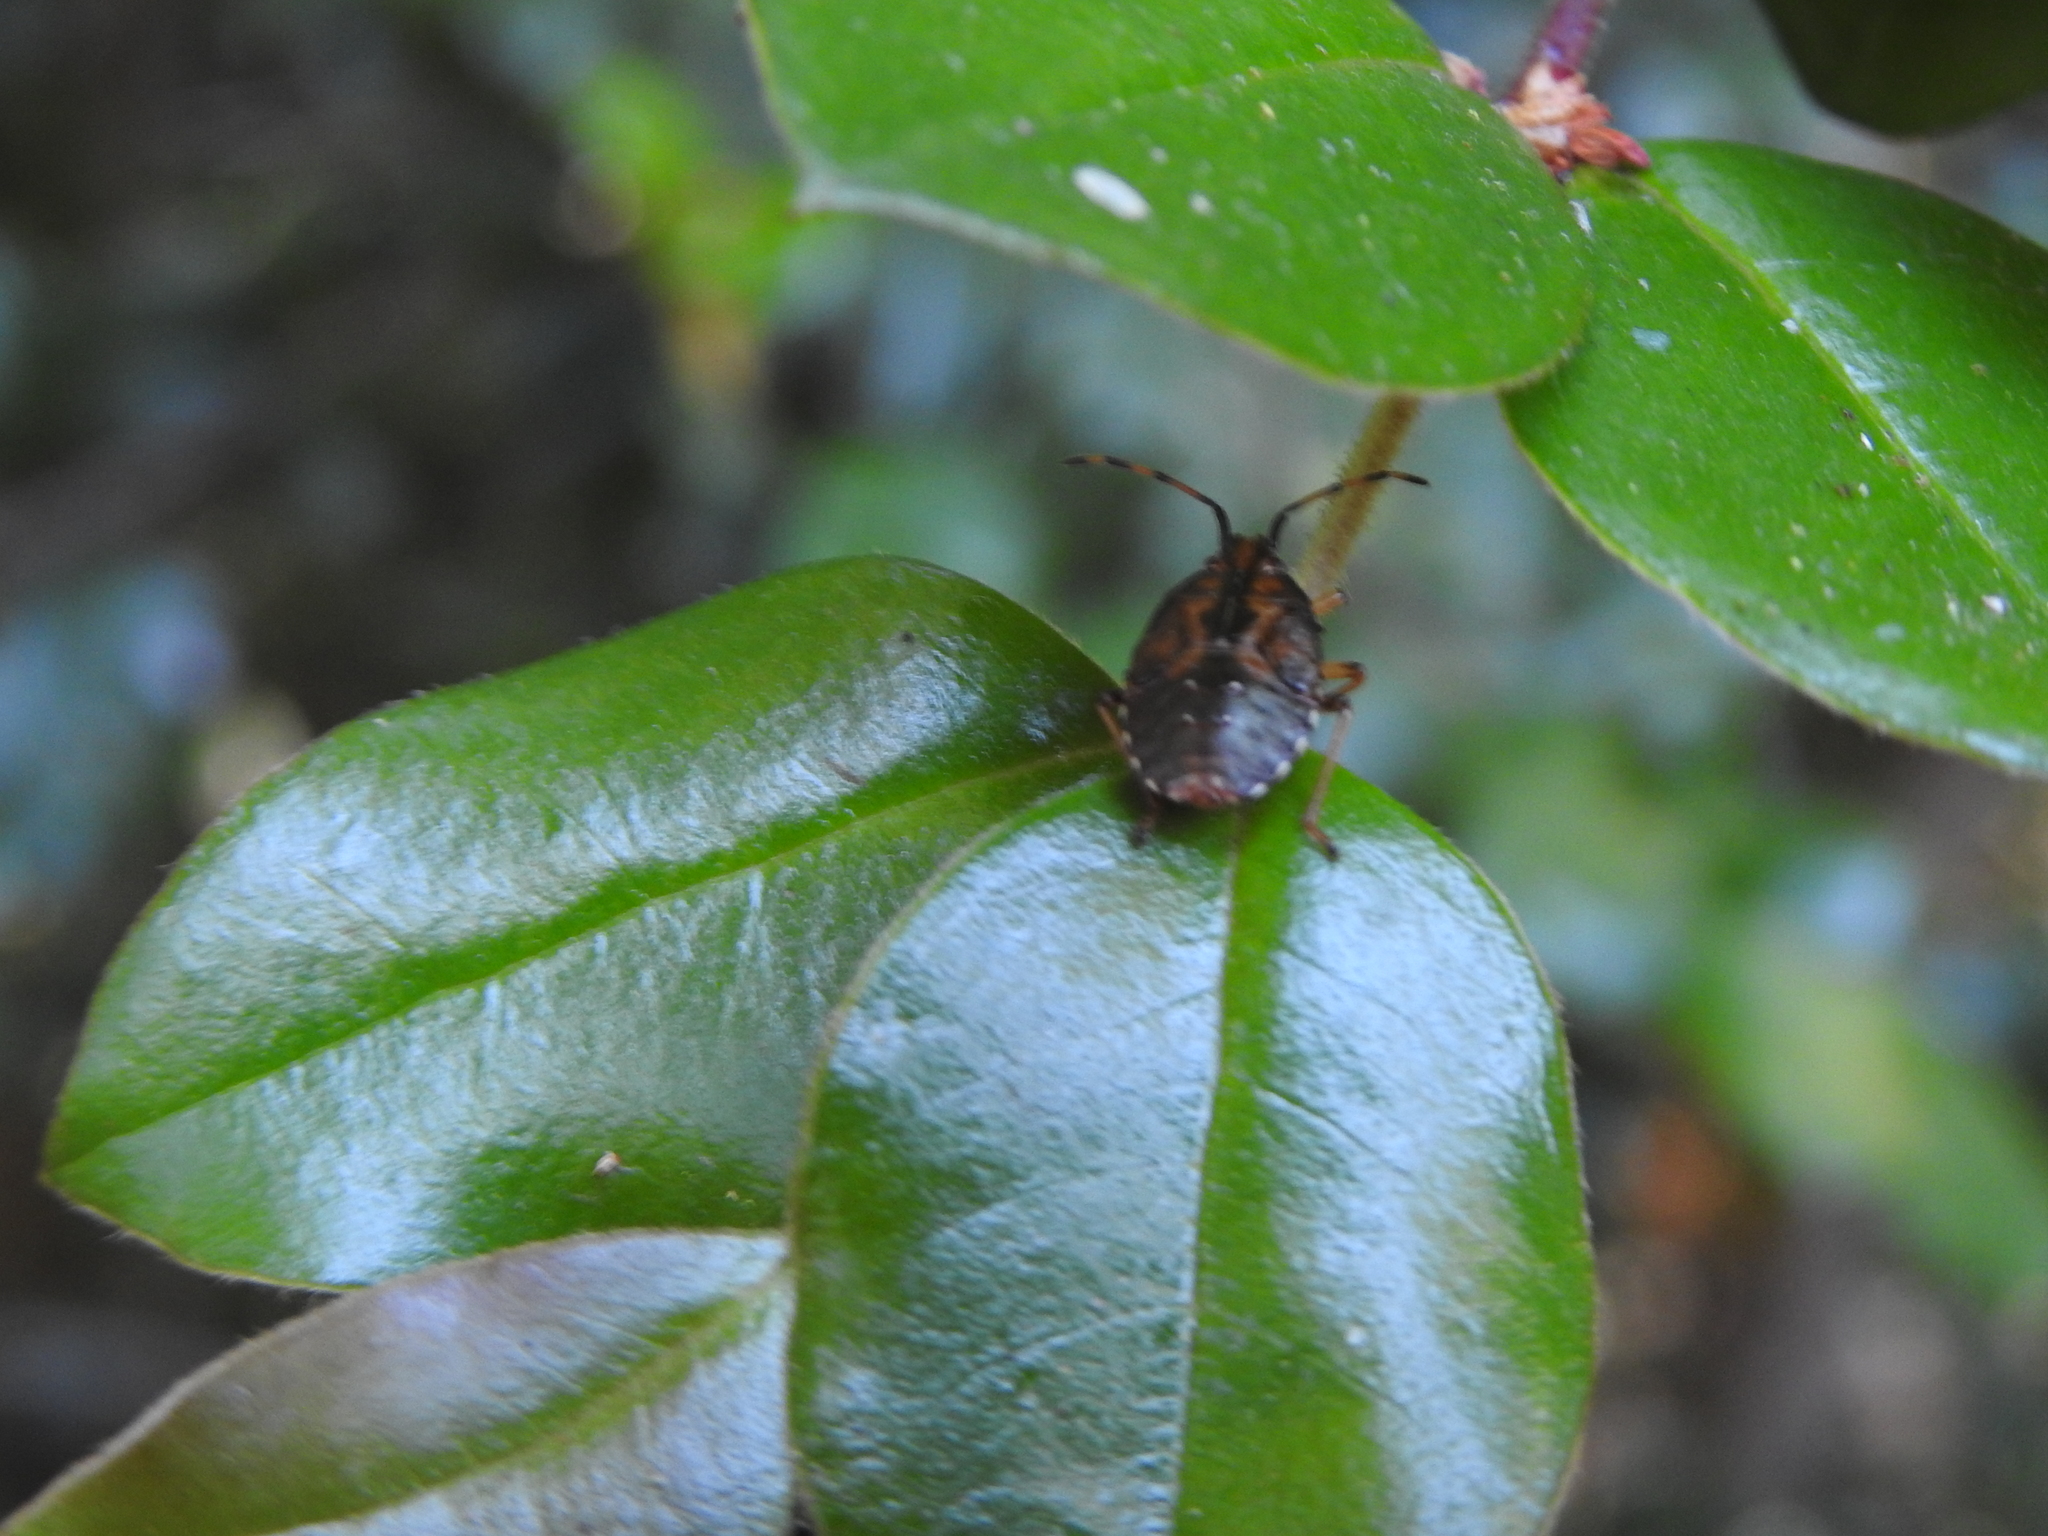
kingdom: Animalia
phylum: Arthropoda
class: Insecta
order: Hemiptera
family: Acanthosomatidae
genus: Planois
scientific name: Planois patagonus
